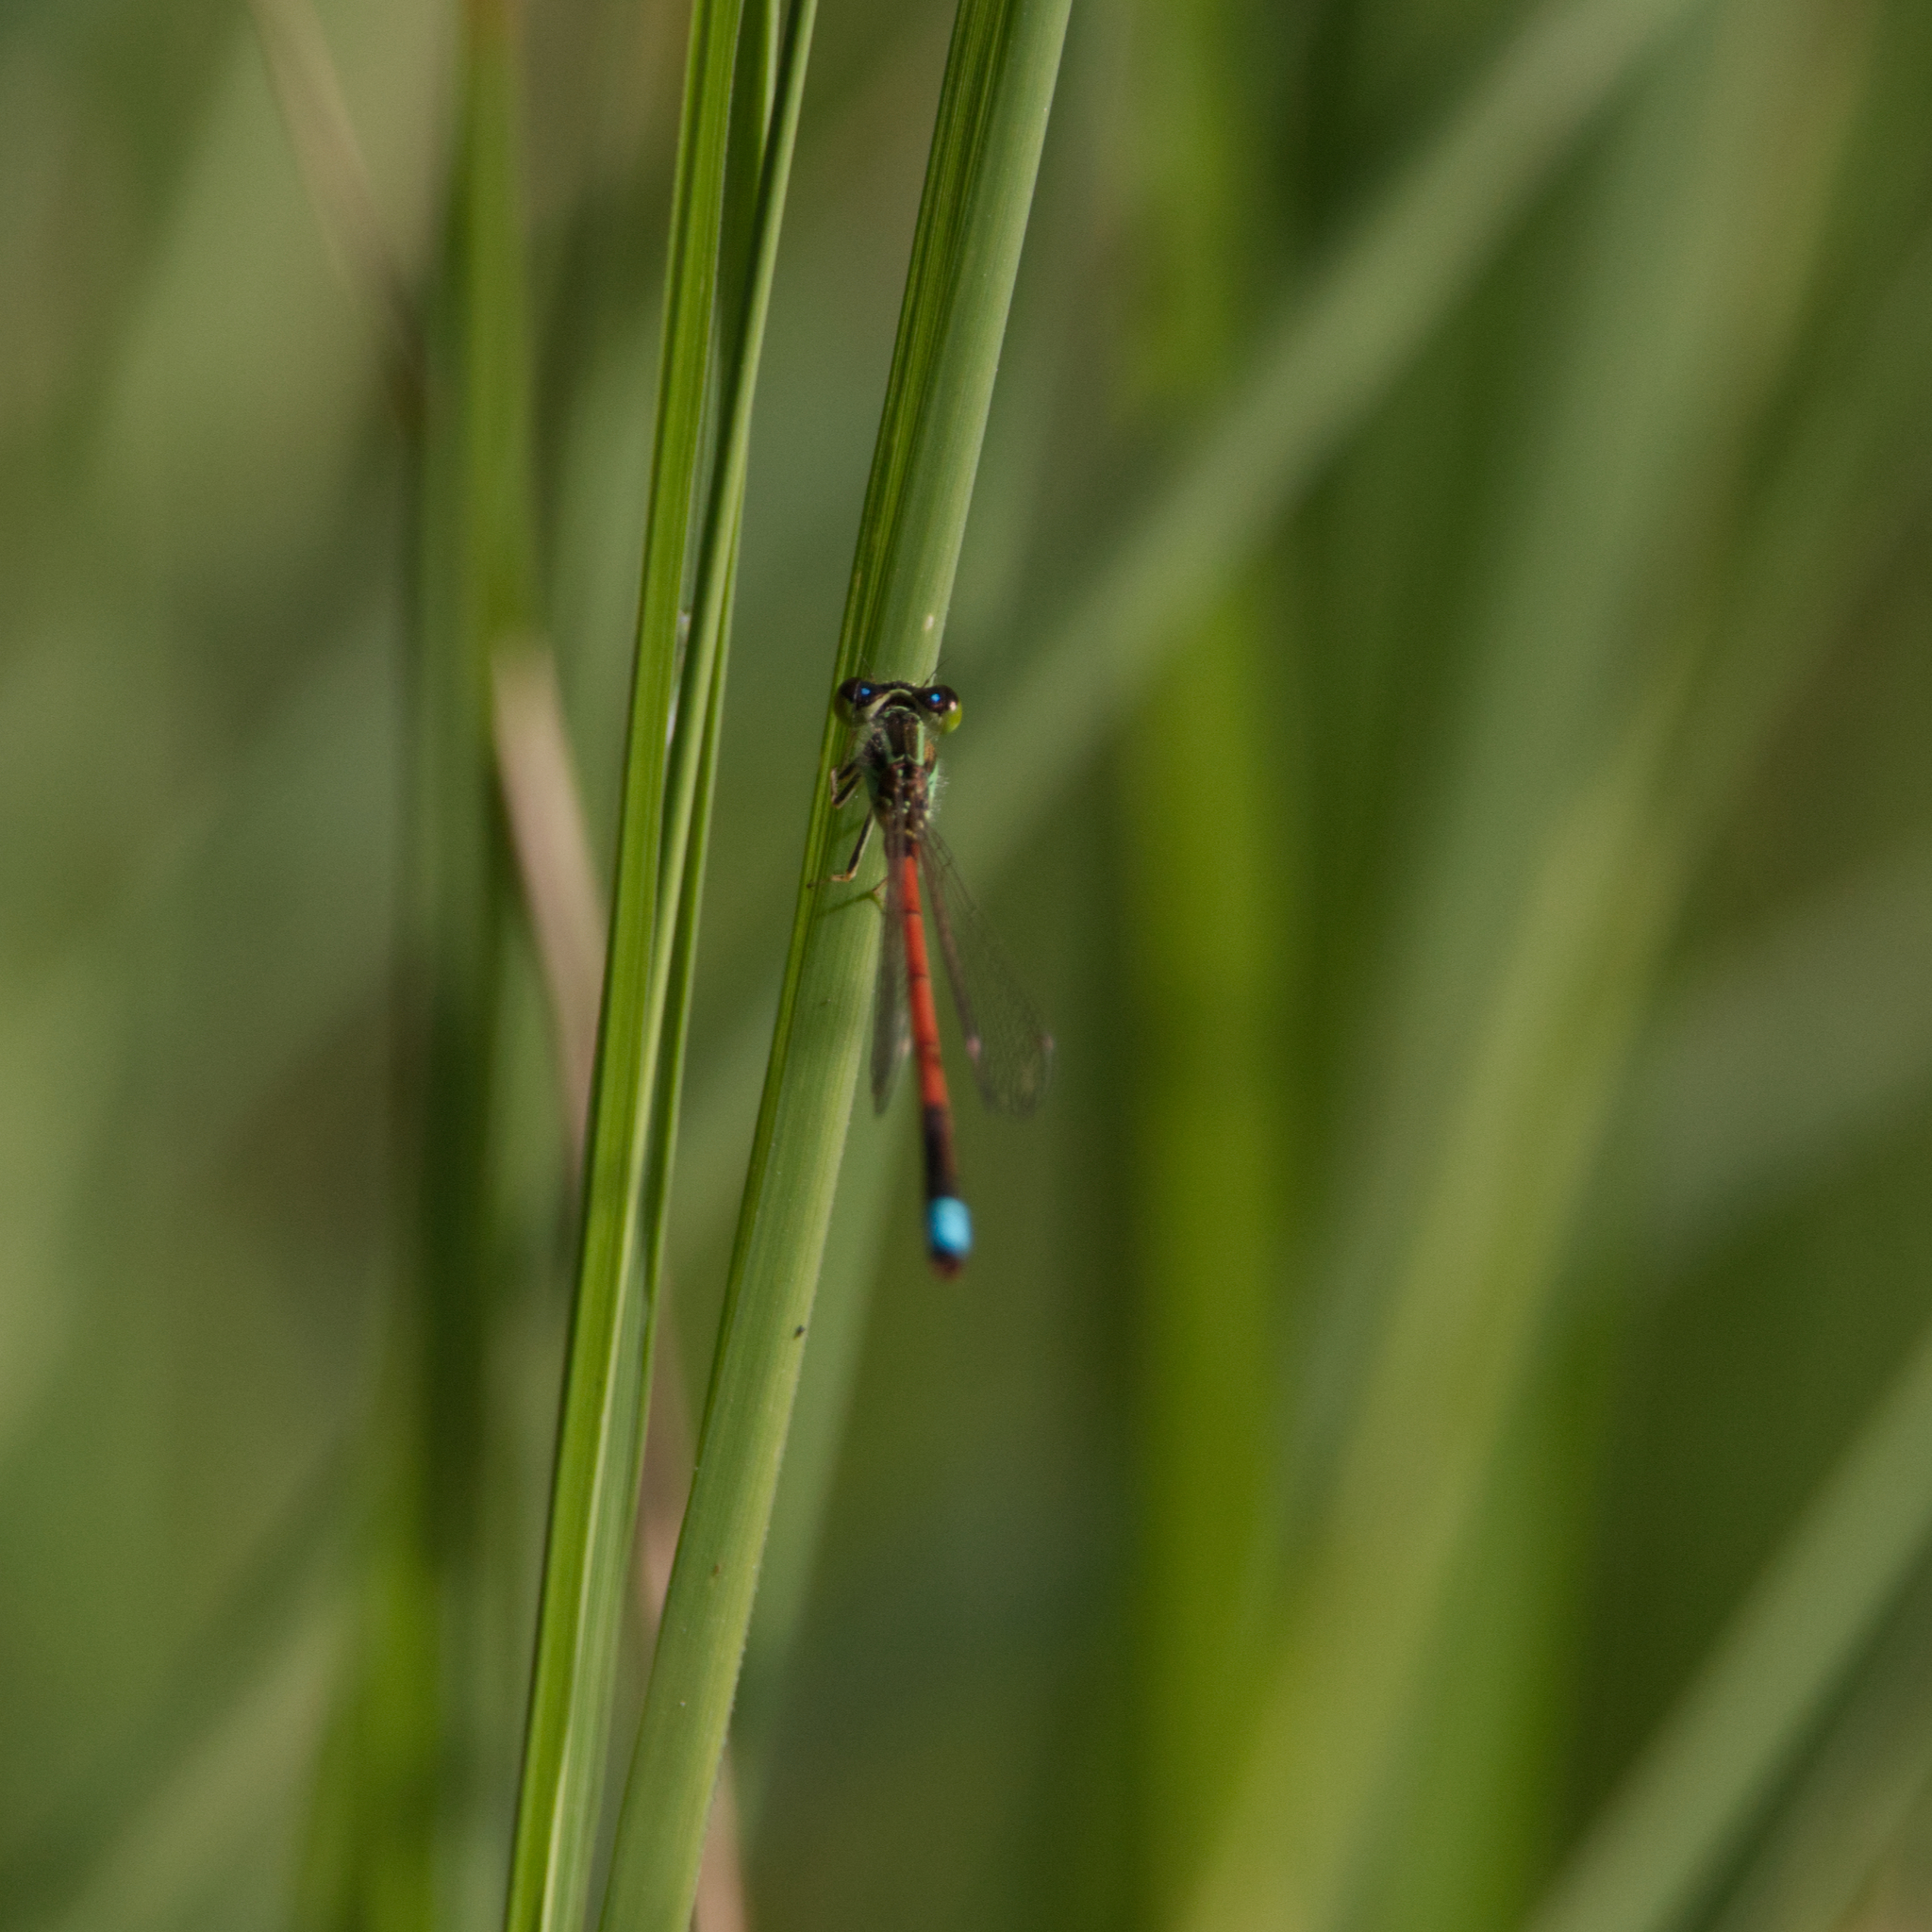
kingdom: Animalia
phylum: Arthropoda
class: Insecta
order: Odonata
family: Coenagrionidae
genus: Ischnura
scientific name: Ischnura aurora
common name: Gossamer damselfly
